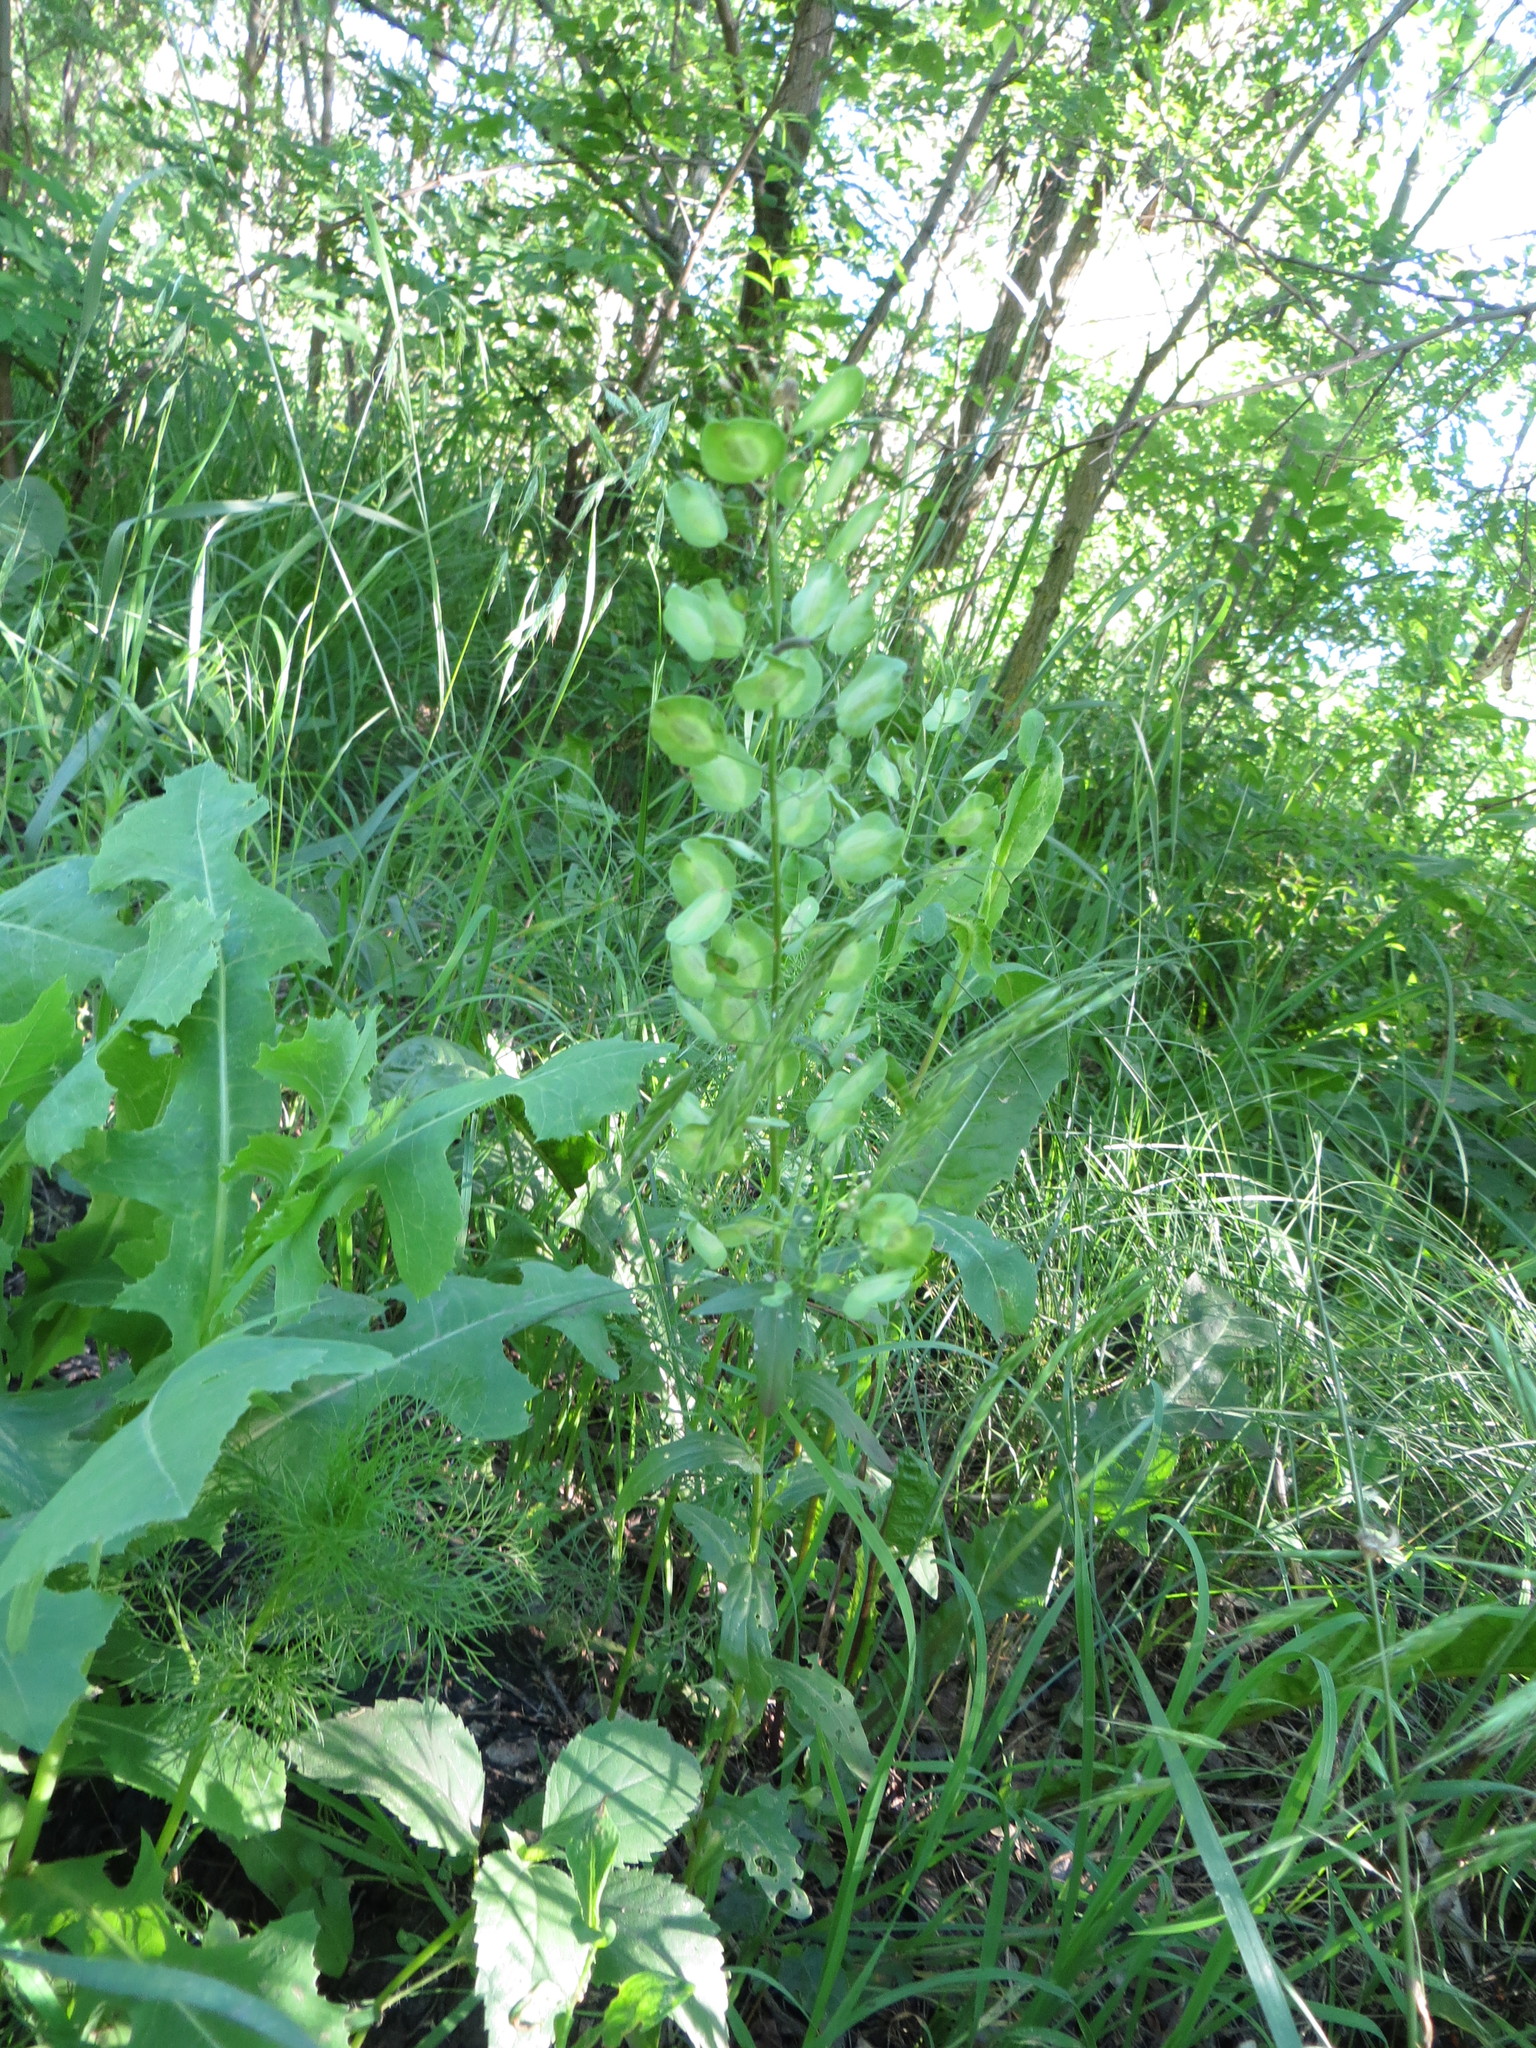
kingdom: Plantae
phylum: Tracheophyta
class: Magnoliopsida
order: Brassicales
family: Brassicaceae
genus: Thlaspi
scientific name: Thlaspi arvense
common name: Field pennycress
